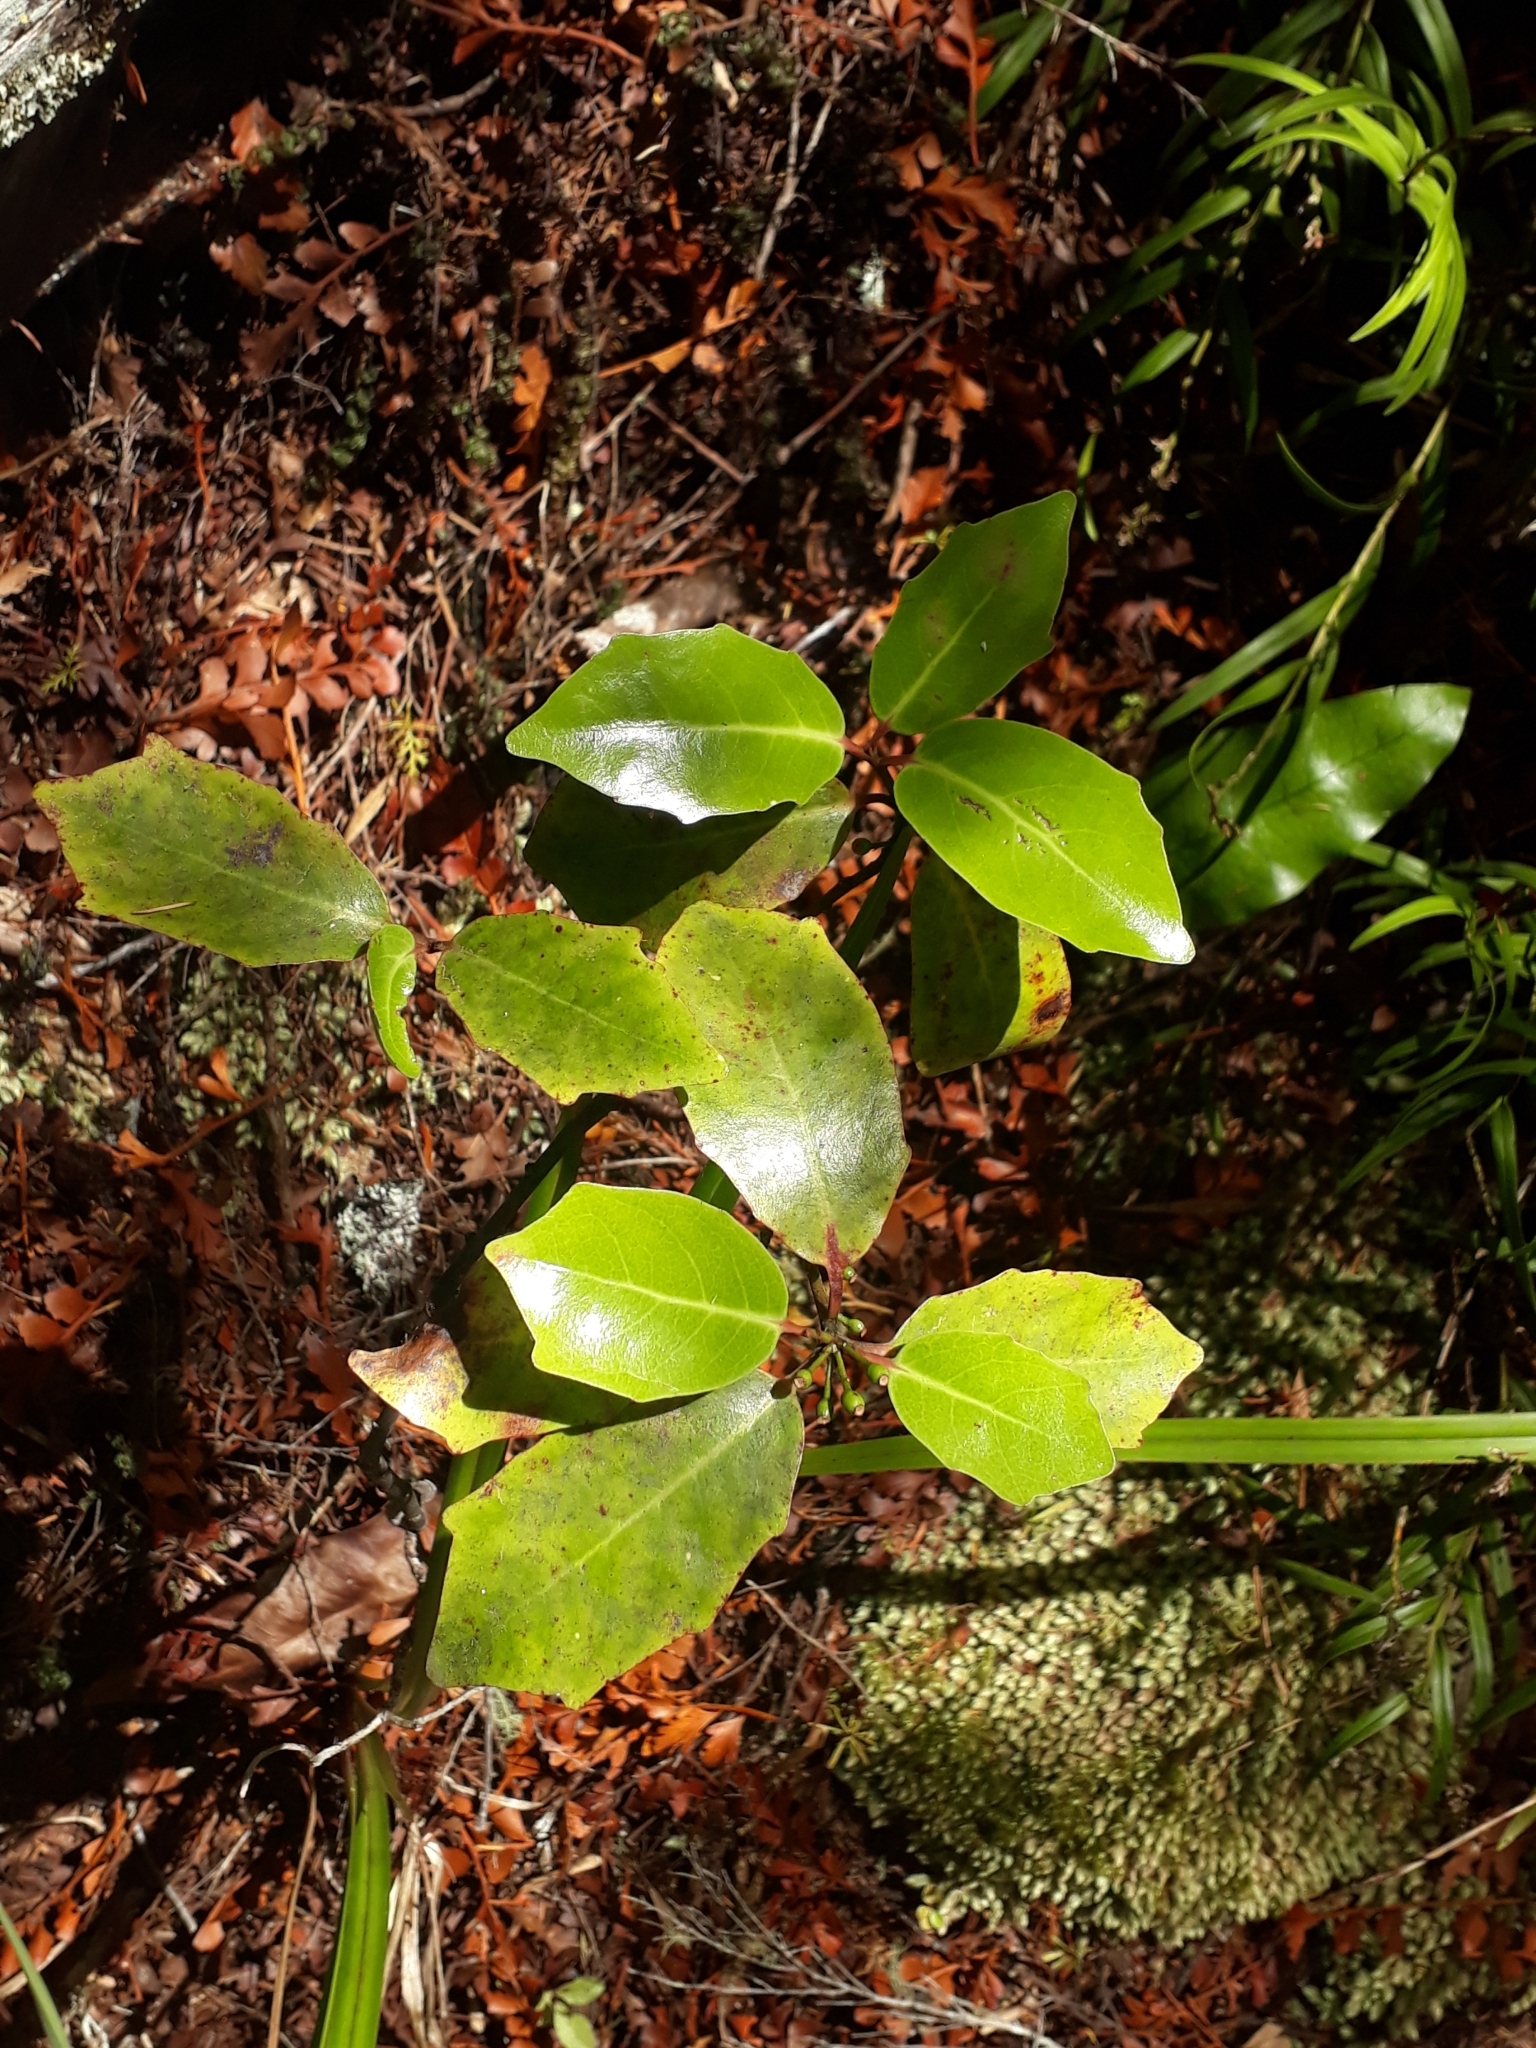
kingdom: Plantae
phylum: Tracheophyta
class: Magnoliopsida
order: Asterales
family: Alseuosmiaceae
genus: Alseuosmia
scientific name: Alseuosmia quercifolia
